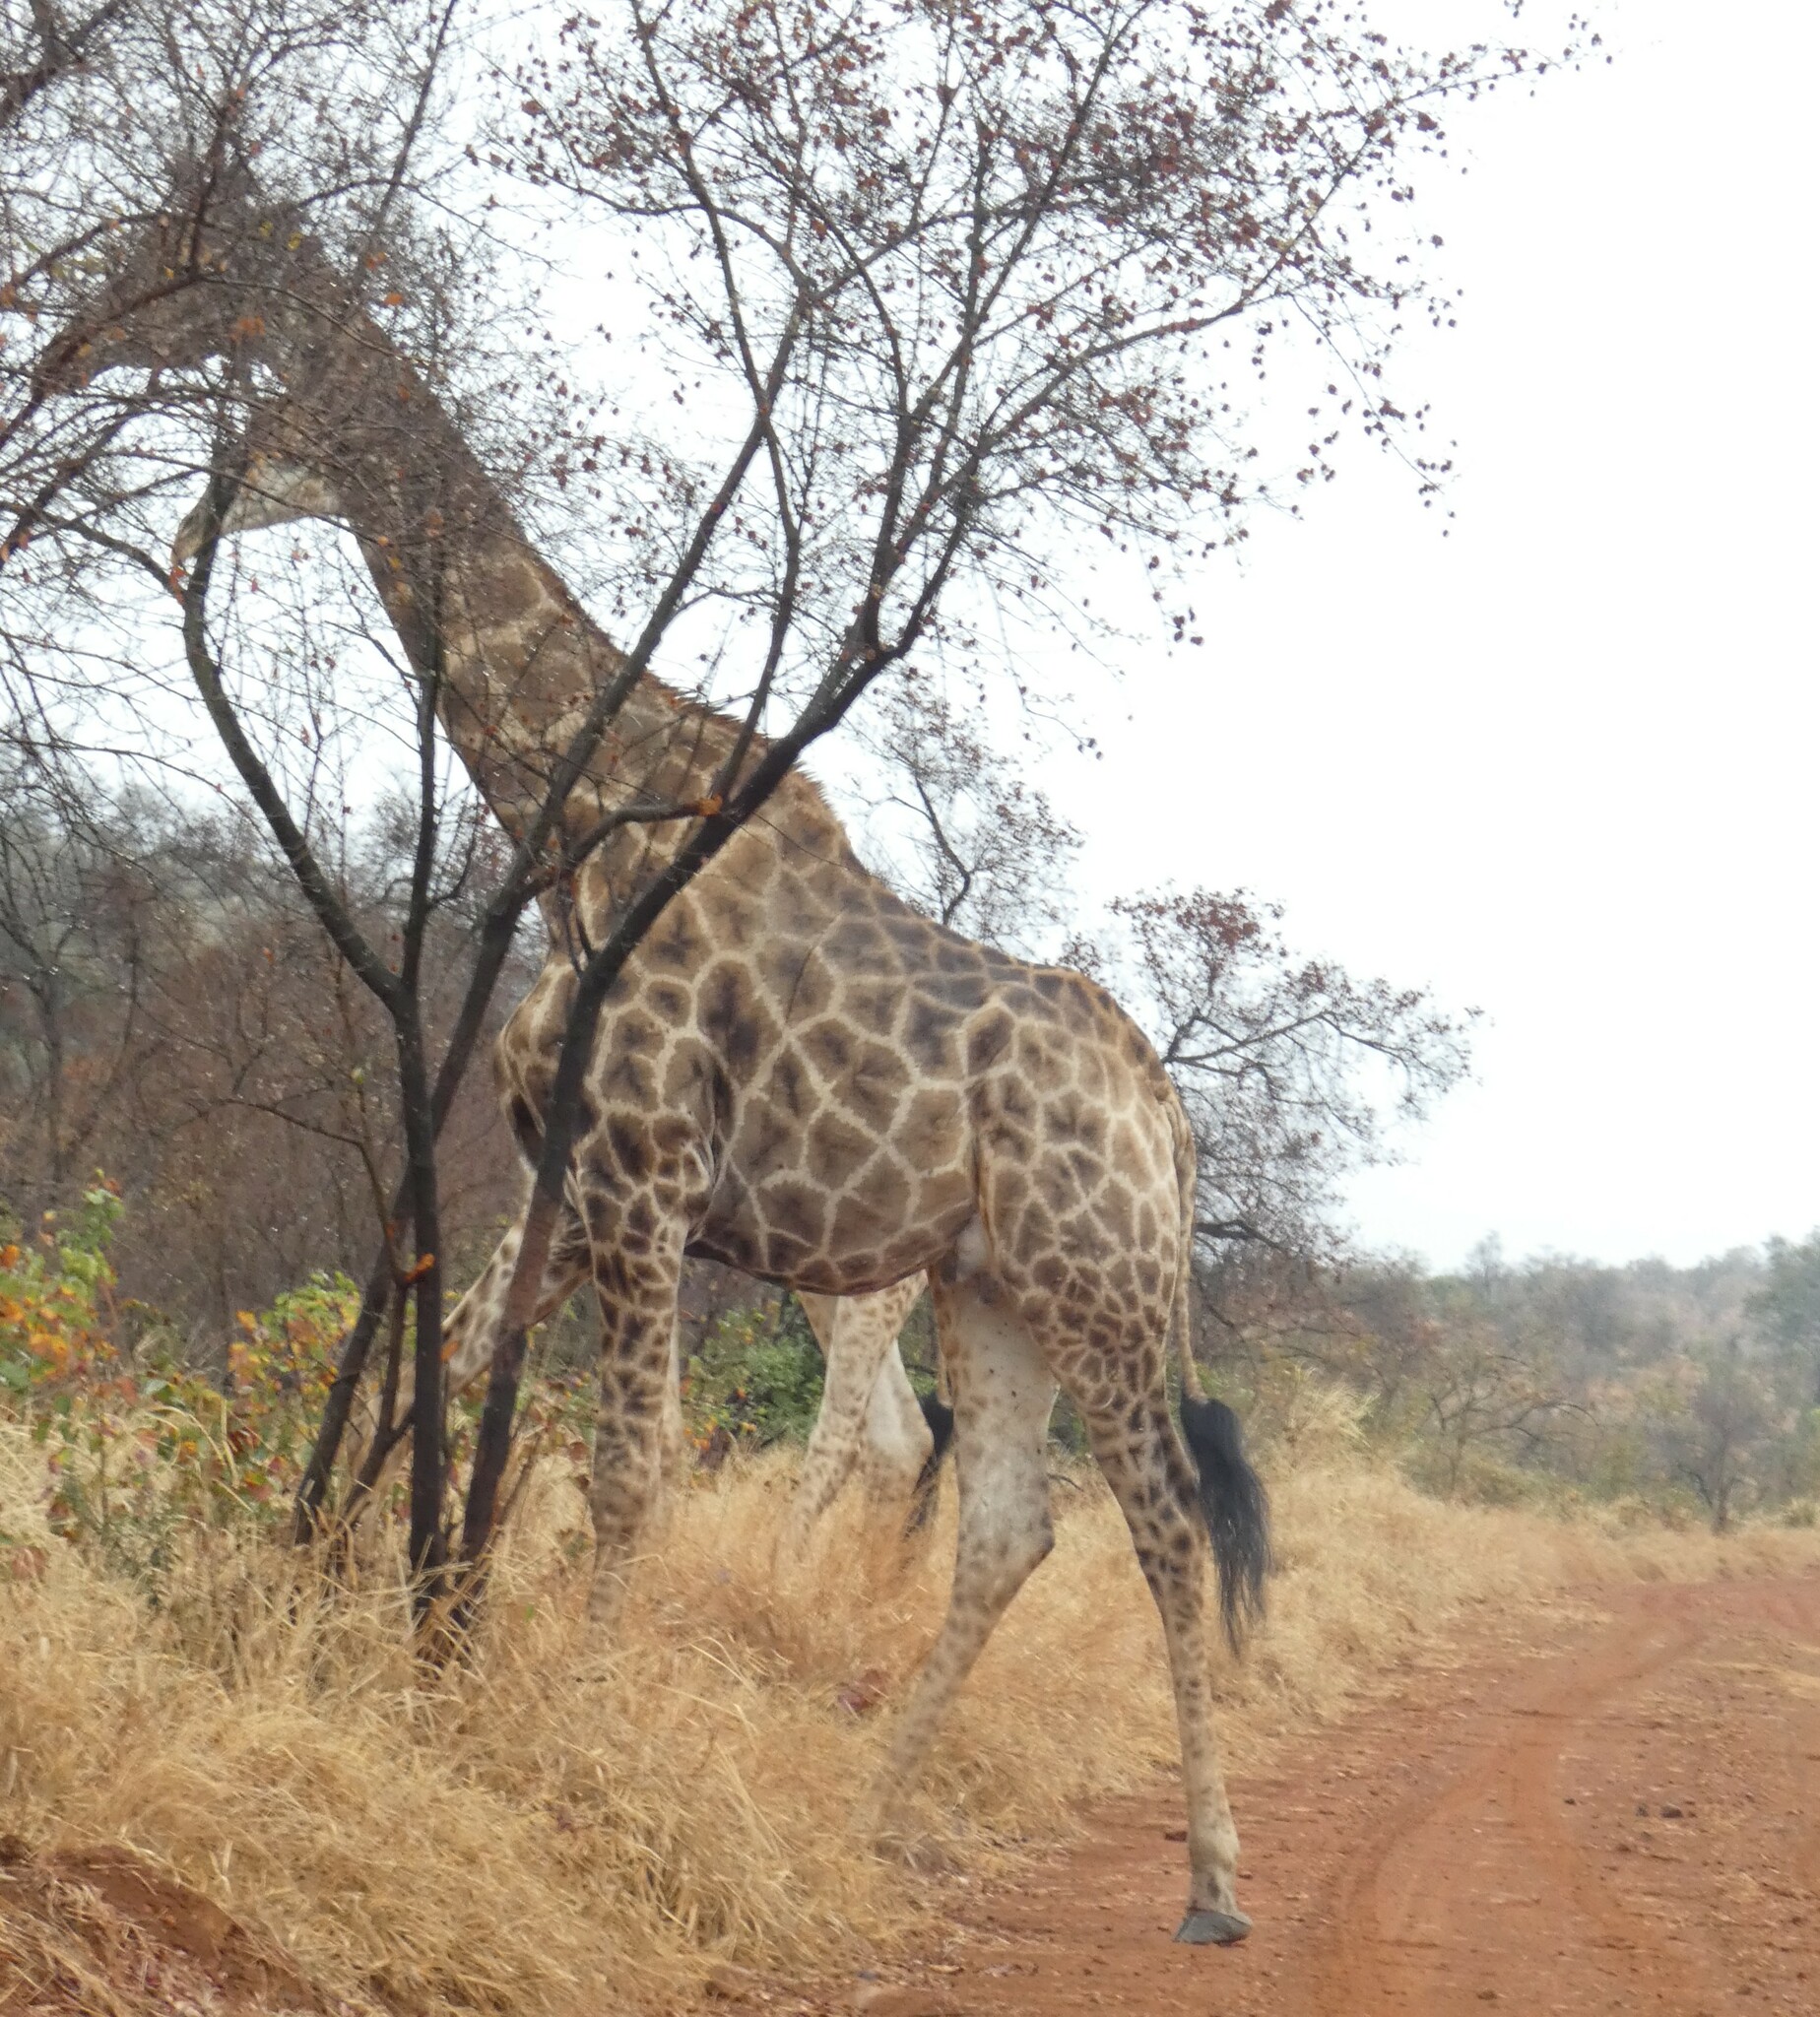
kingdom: Animalia
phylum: Chordata
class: Mammalia
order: Artiodactyla
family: Giraffidae
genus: Giraffa
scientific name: Giraffa giraffa
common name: Southern giraffe
